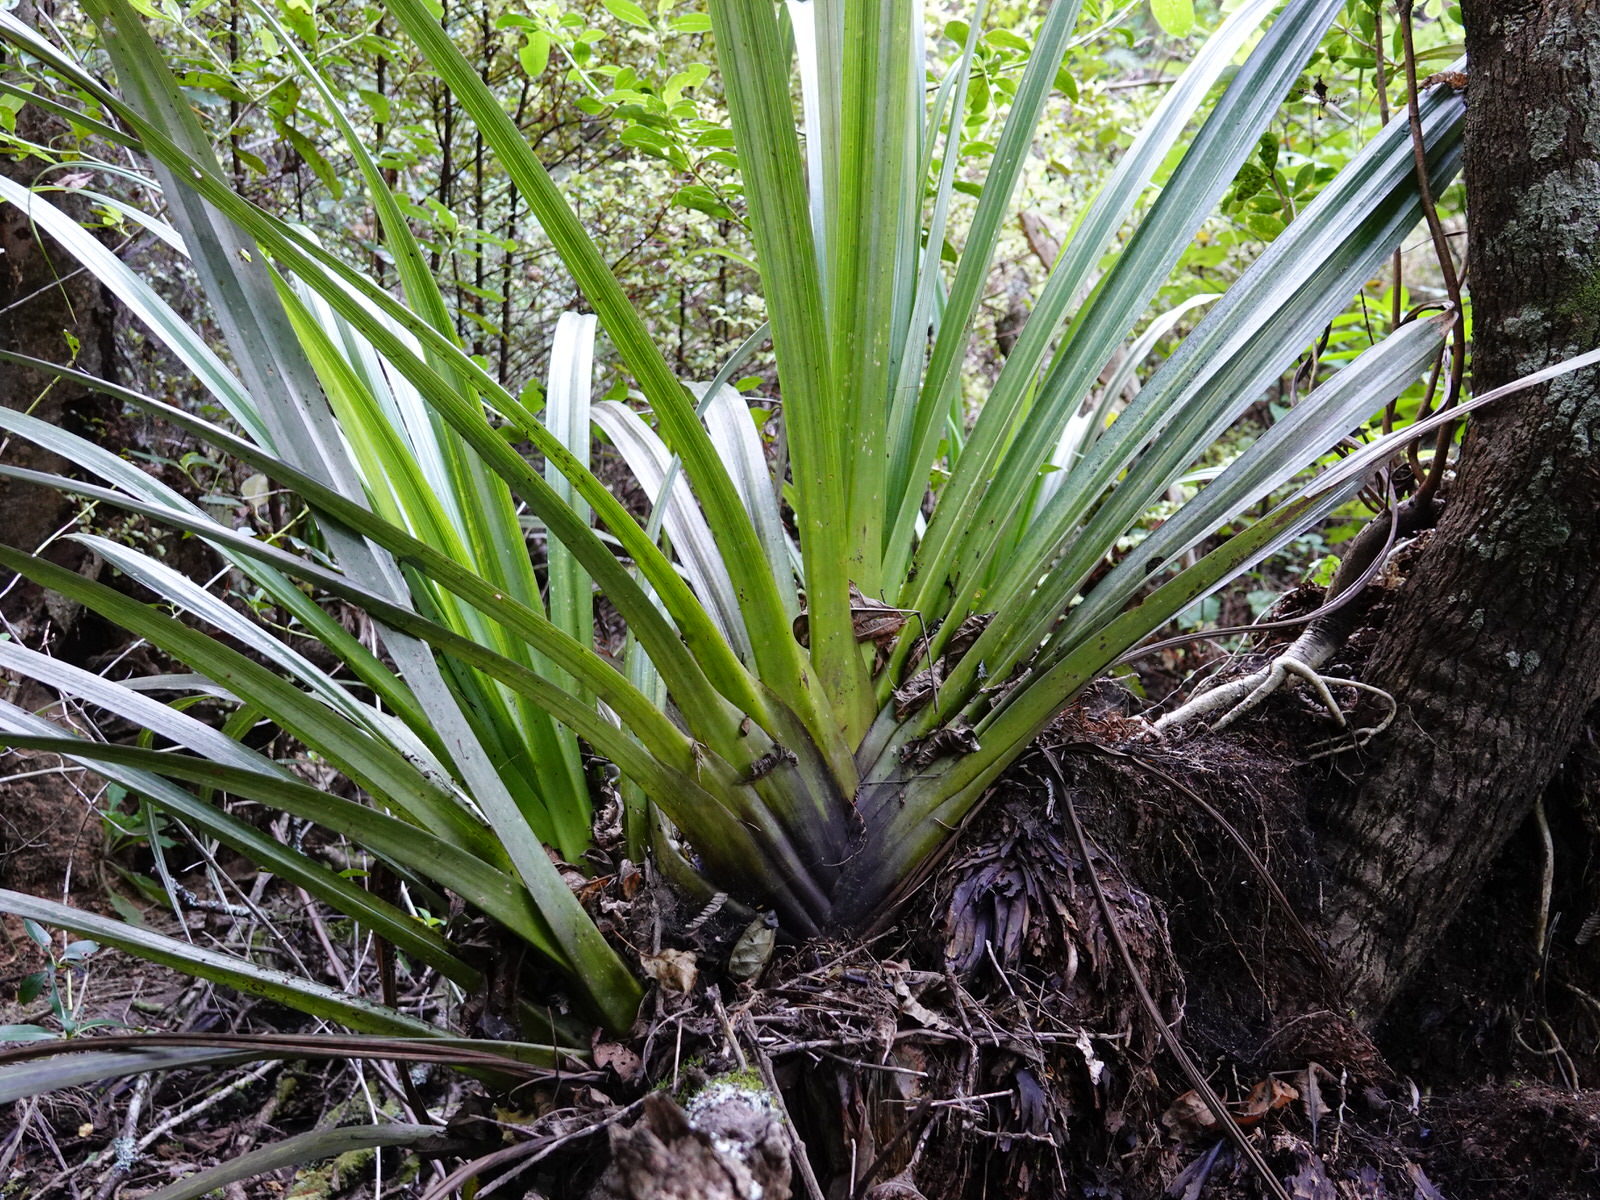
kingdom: Plantae
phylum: Tracheophyta
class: Liliopsida
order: Asparagales
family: Asteliaceae
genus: Astelia
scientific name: Astelia hastata
